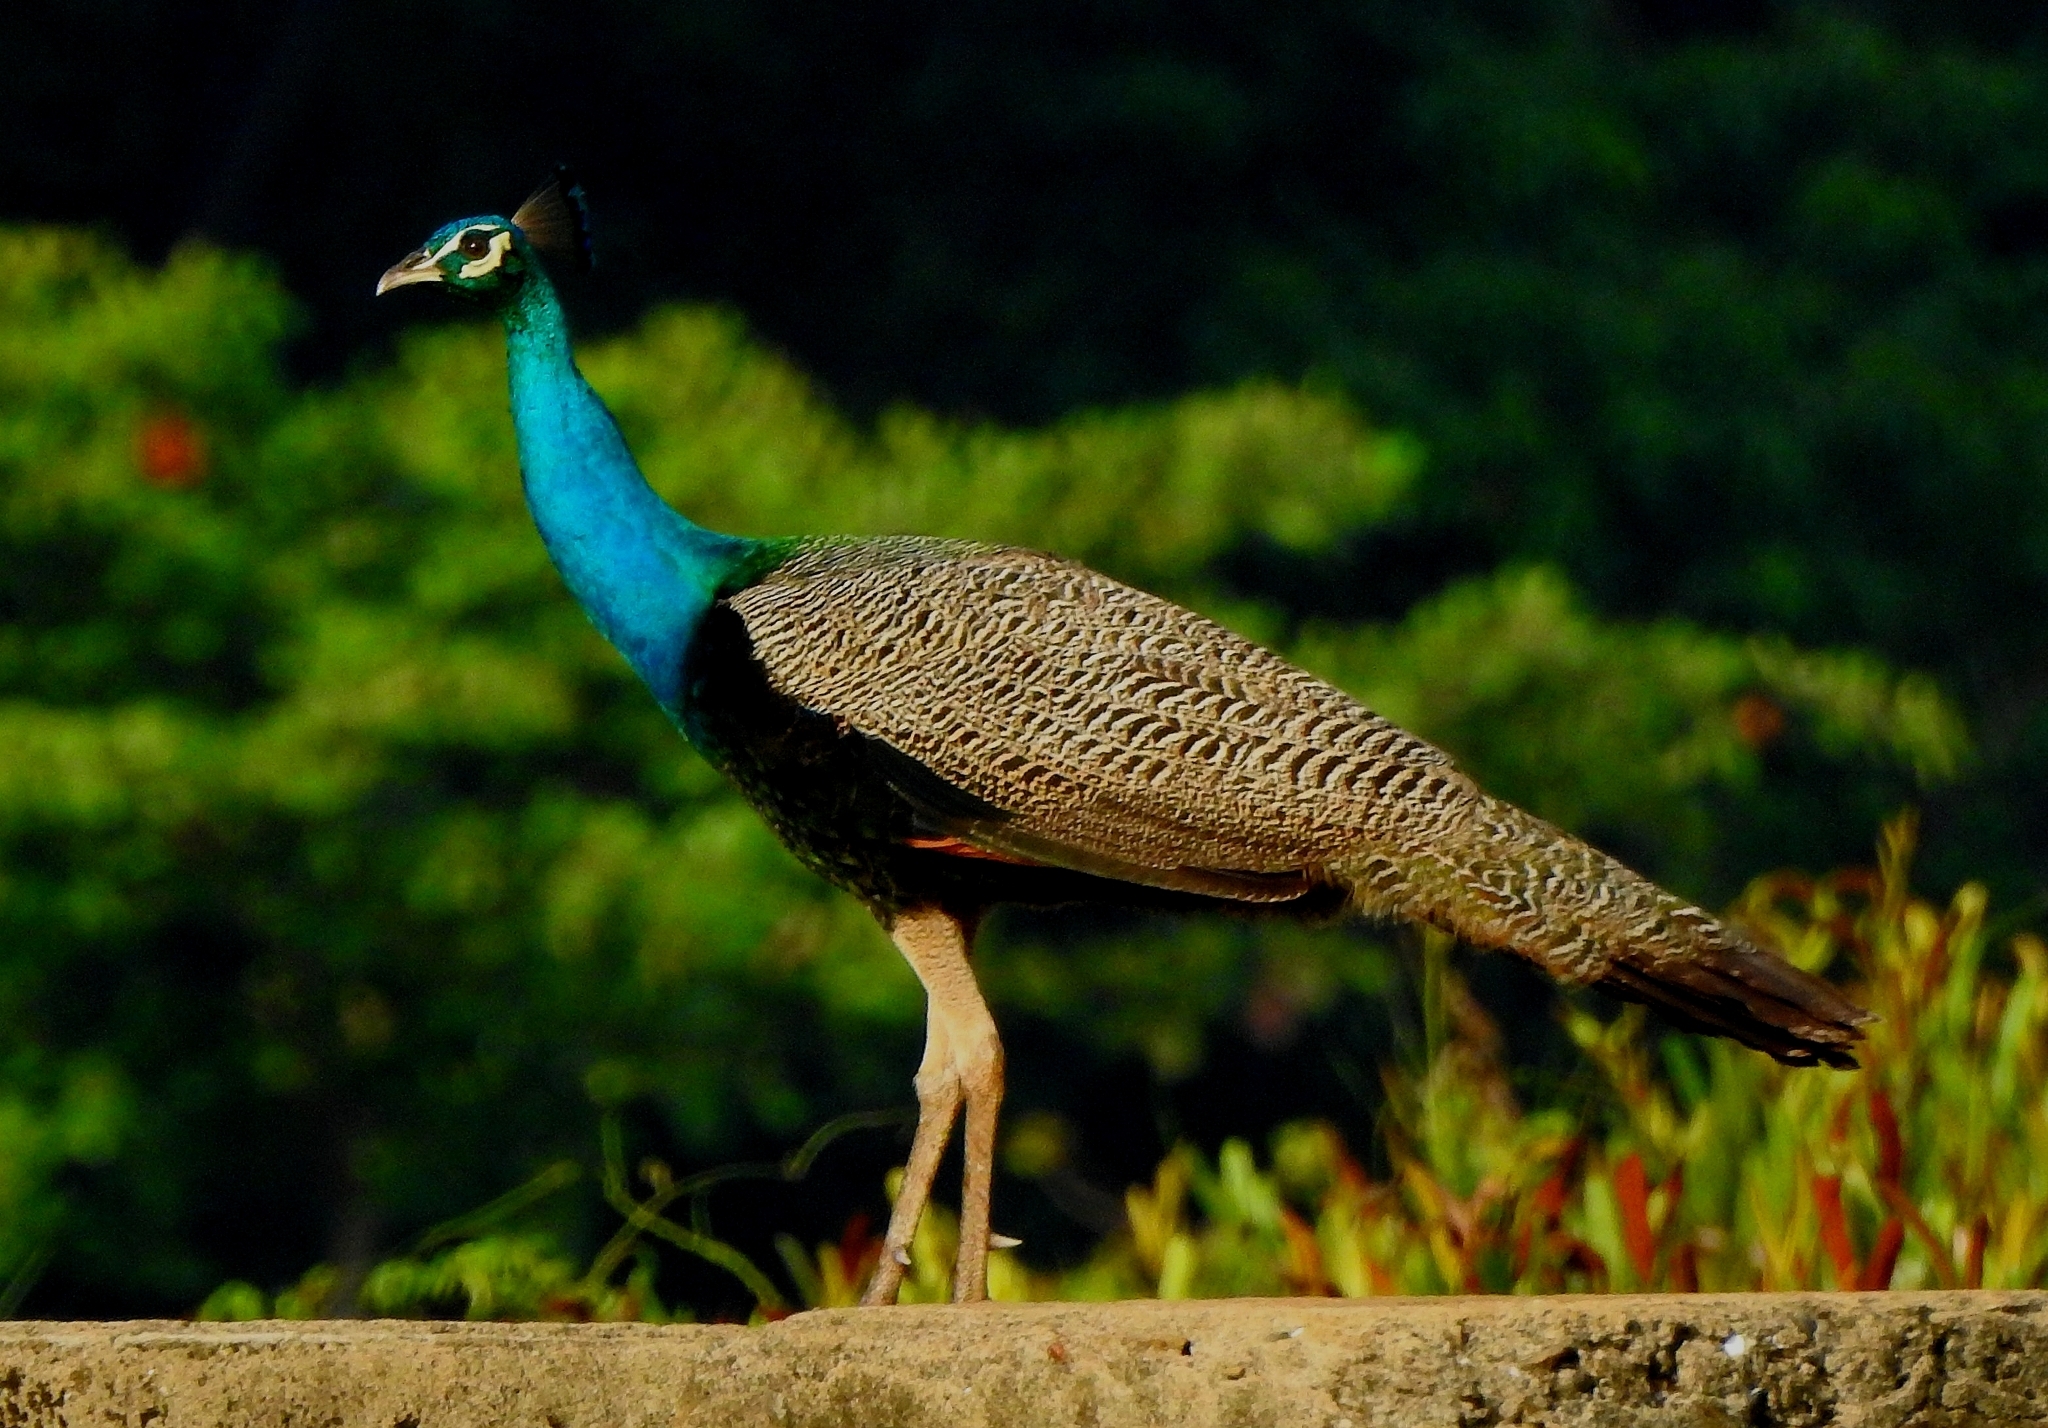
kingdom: Animalia
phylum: Chordata
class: Aves
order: Galliformes
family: Phasianidae
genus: Pavo
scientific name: Pavo cristatus
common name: Indian peafowl
